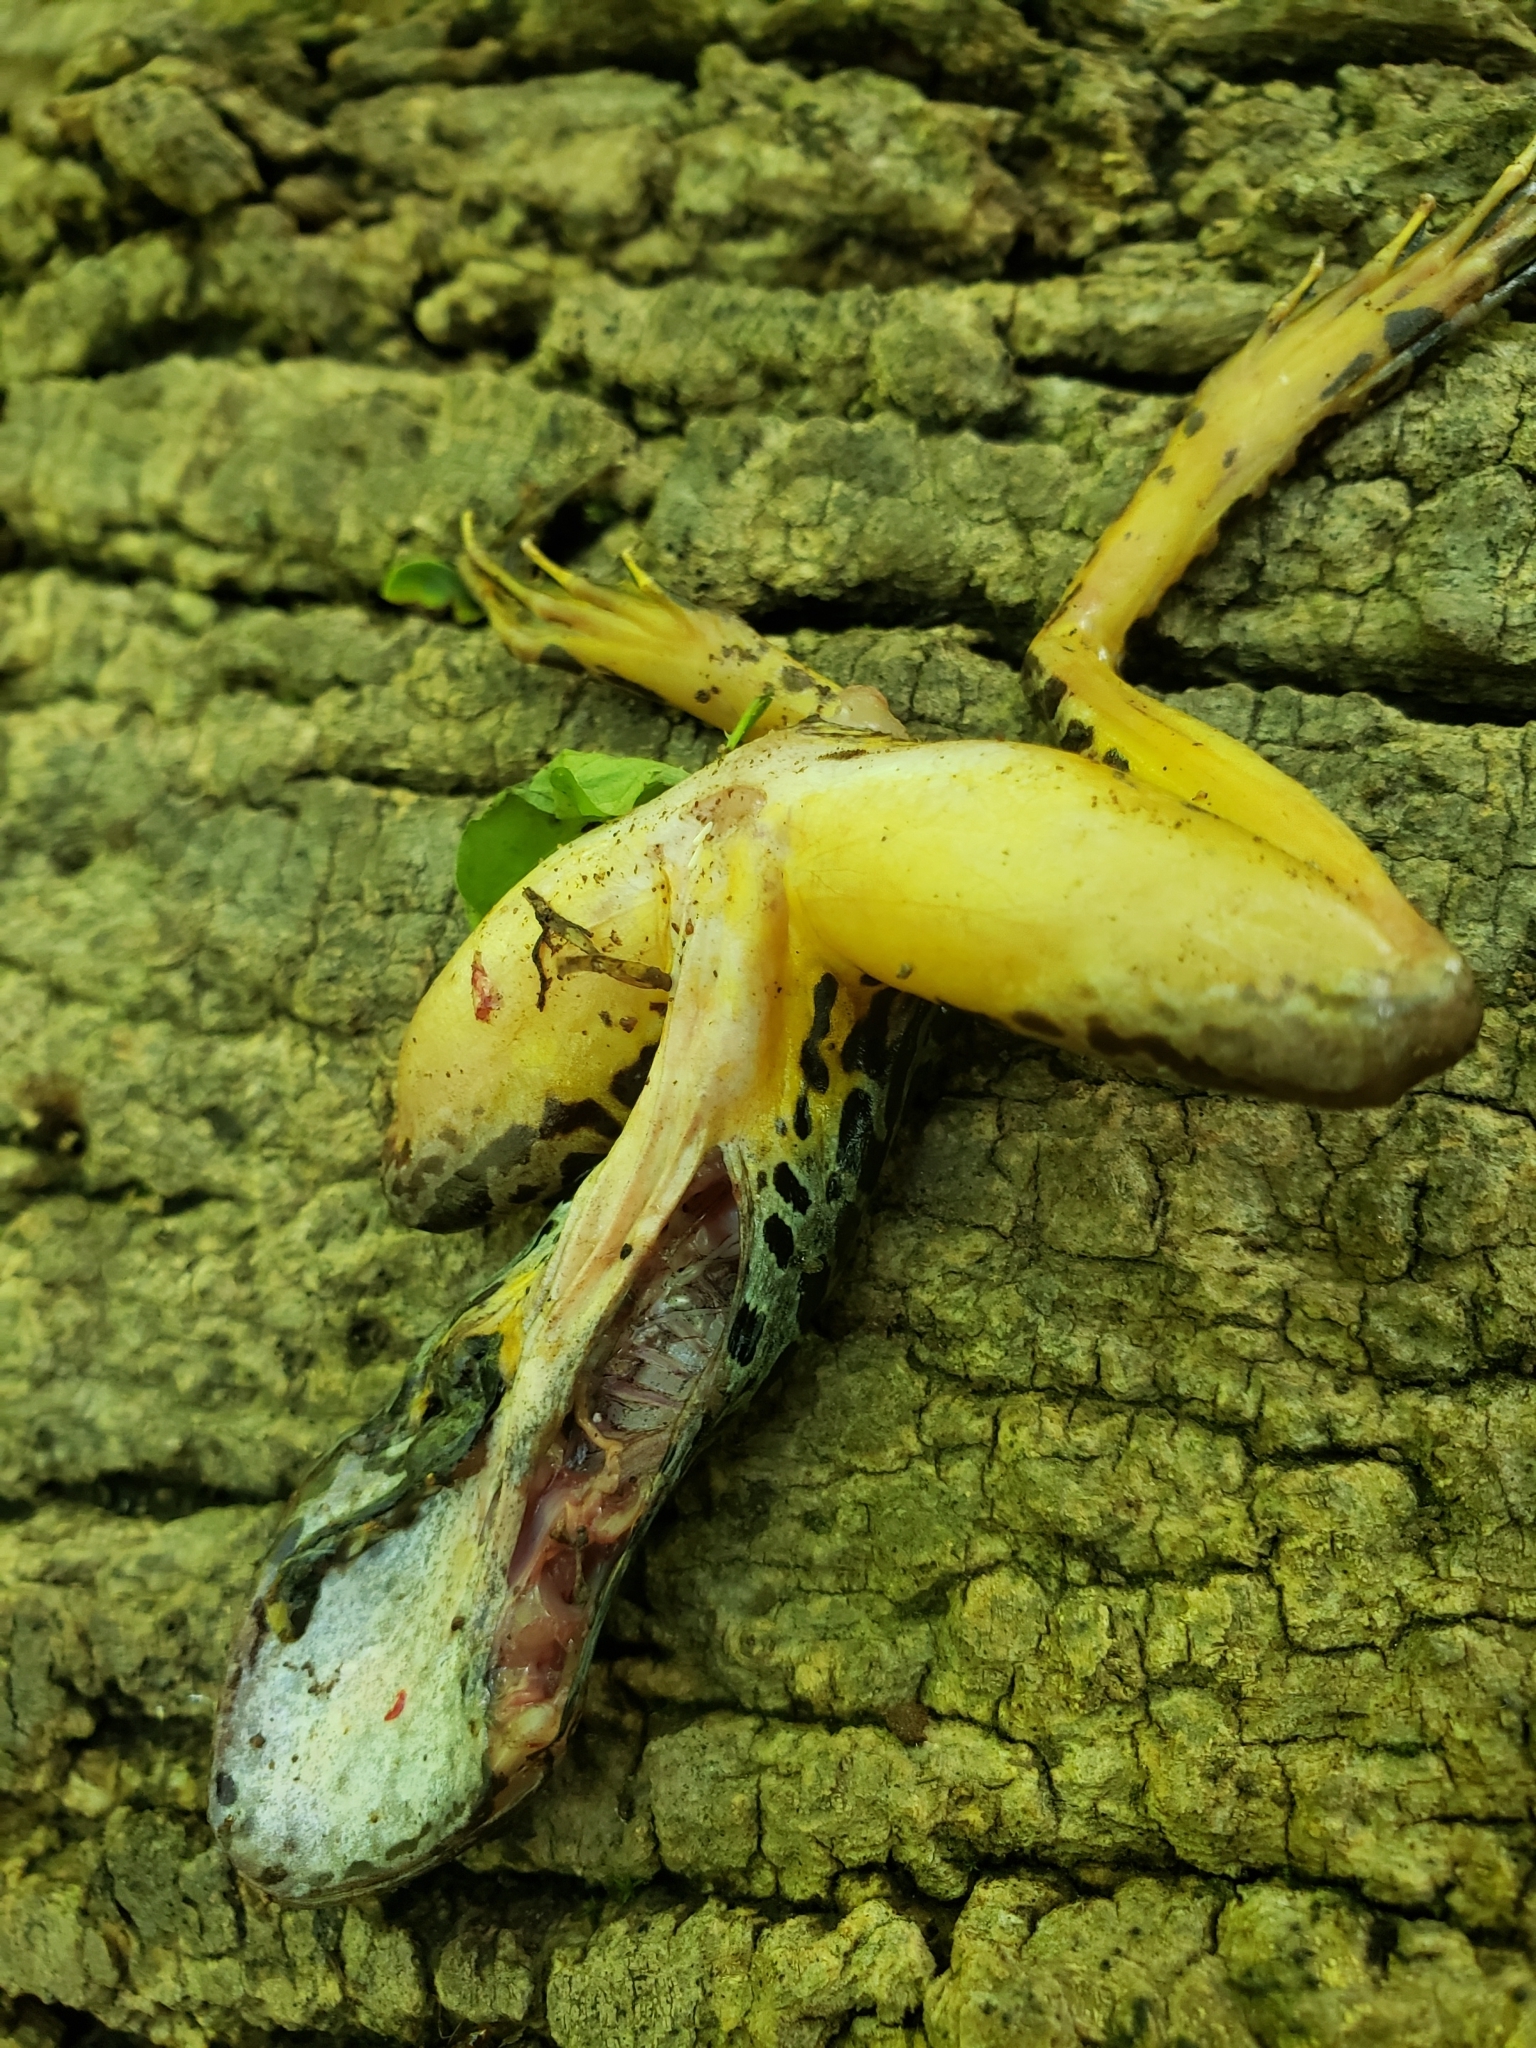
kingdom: Animalia
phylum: Chordata
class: Amphibia
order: Anura
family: Ranidae
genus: Lithobates
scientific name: Lithobates palustris
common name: Pickerel frog
